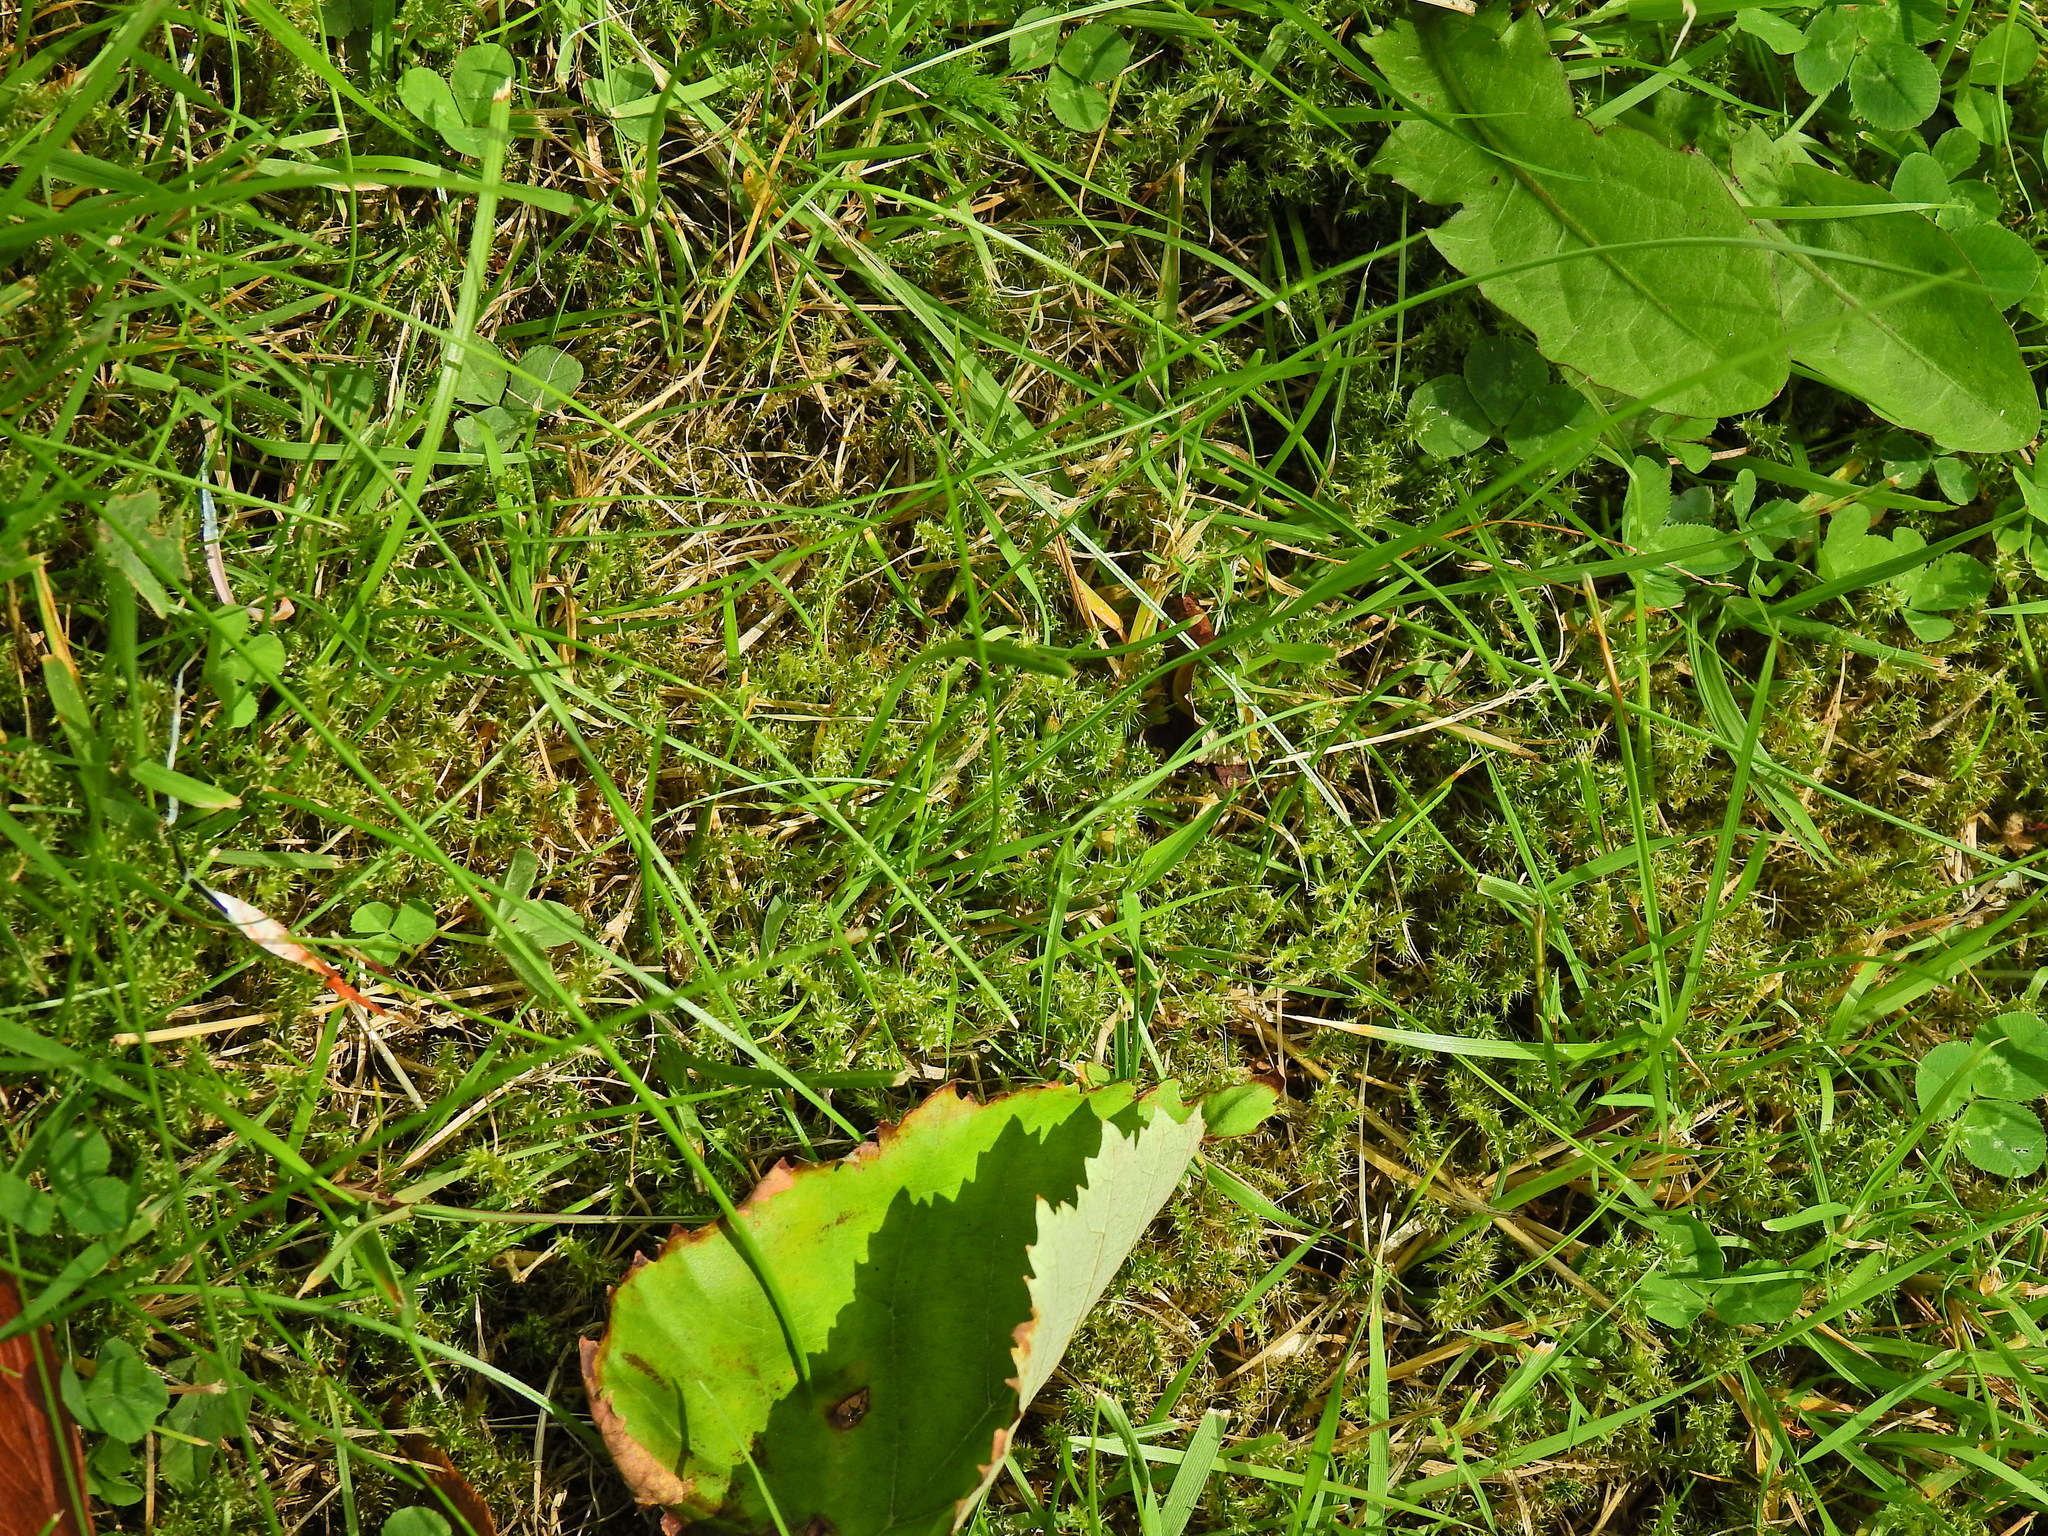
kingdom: Plantae
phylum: Bryophyta
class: Bryopsida
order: Hypnales
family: Hylocomiaceae
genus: Rhytidiadelphus
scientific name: Rhytidiadelphus squarrosus
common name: Springy turf-moss
